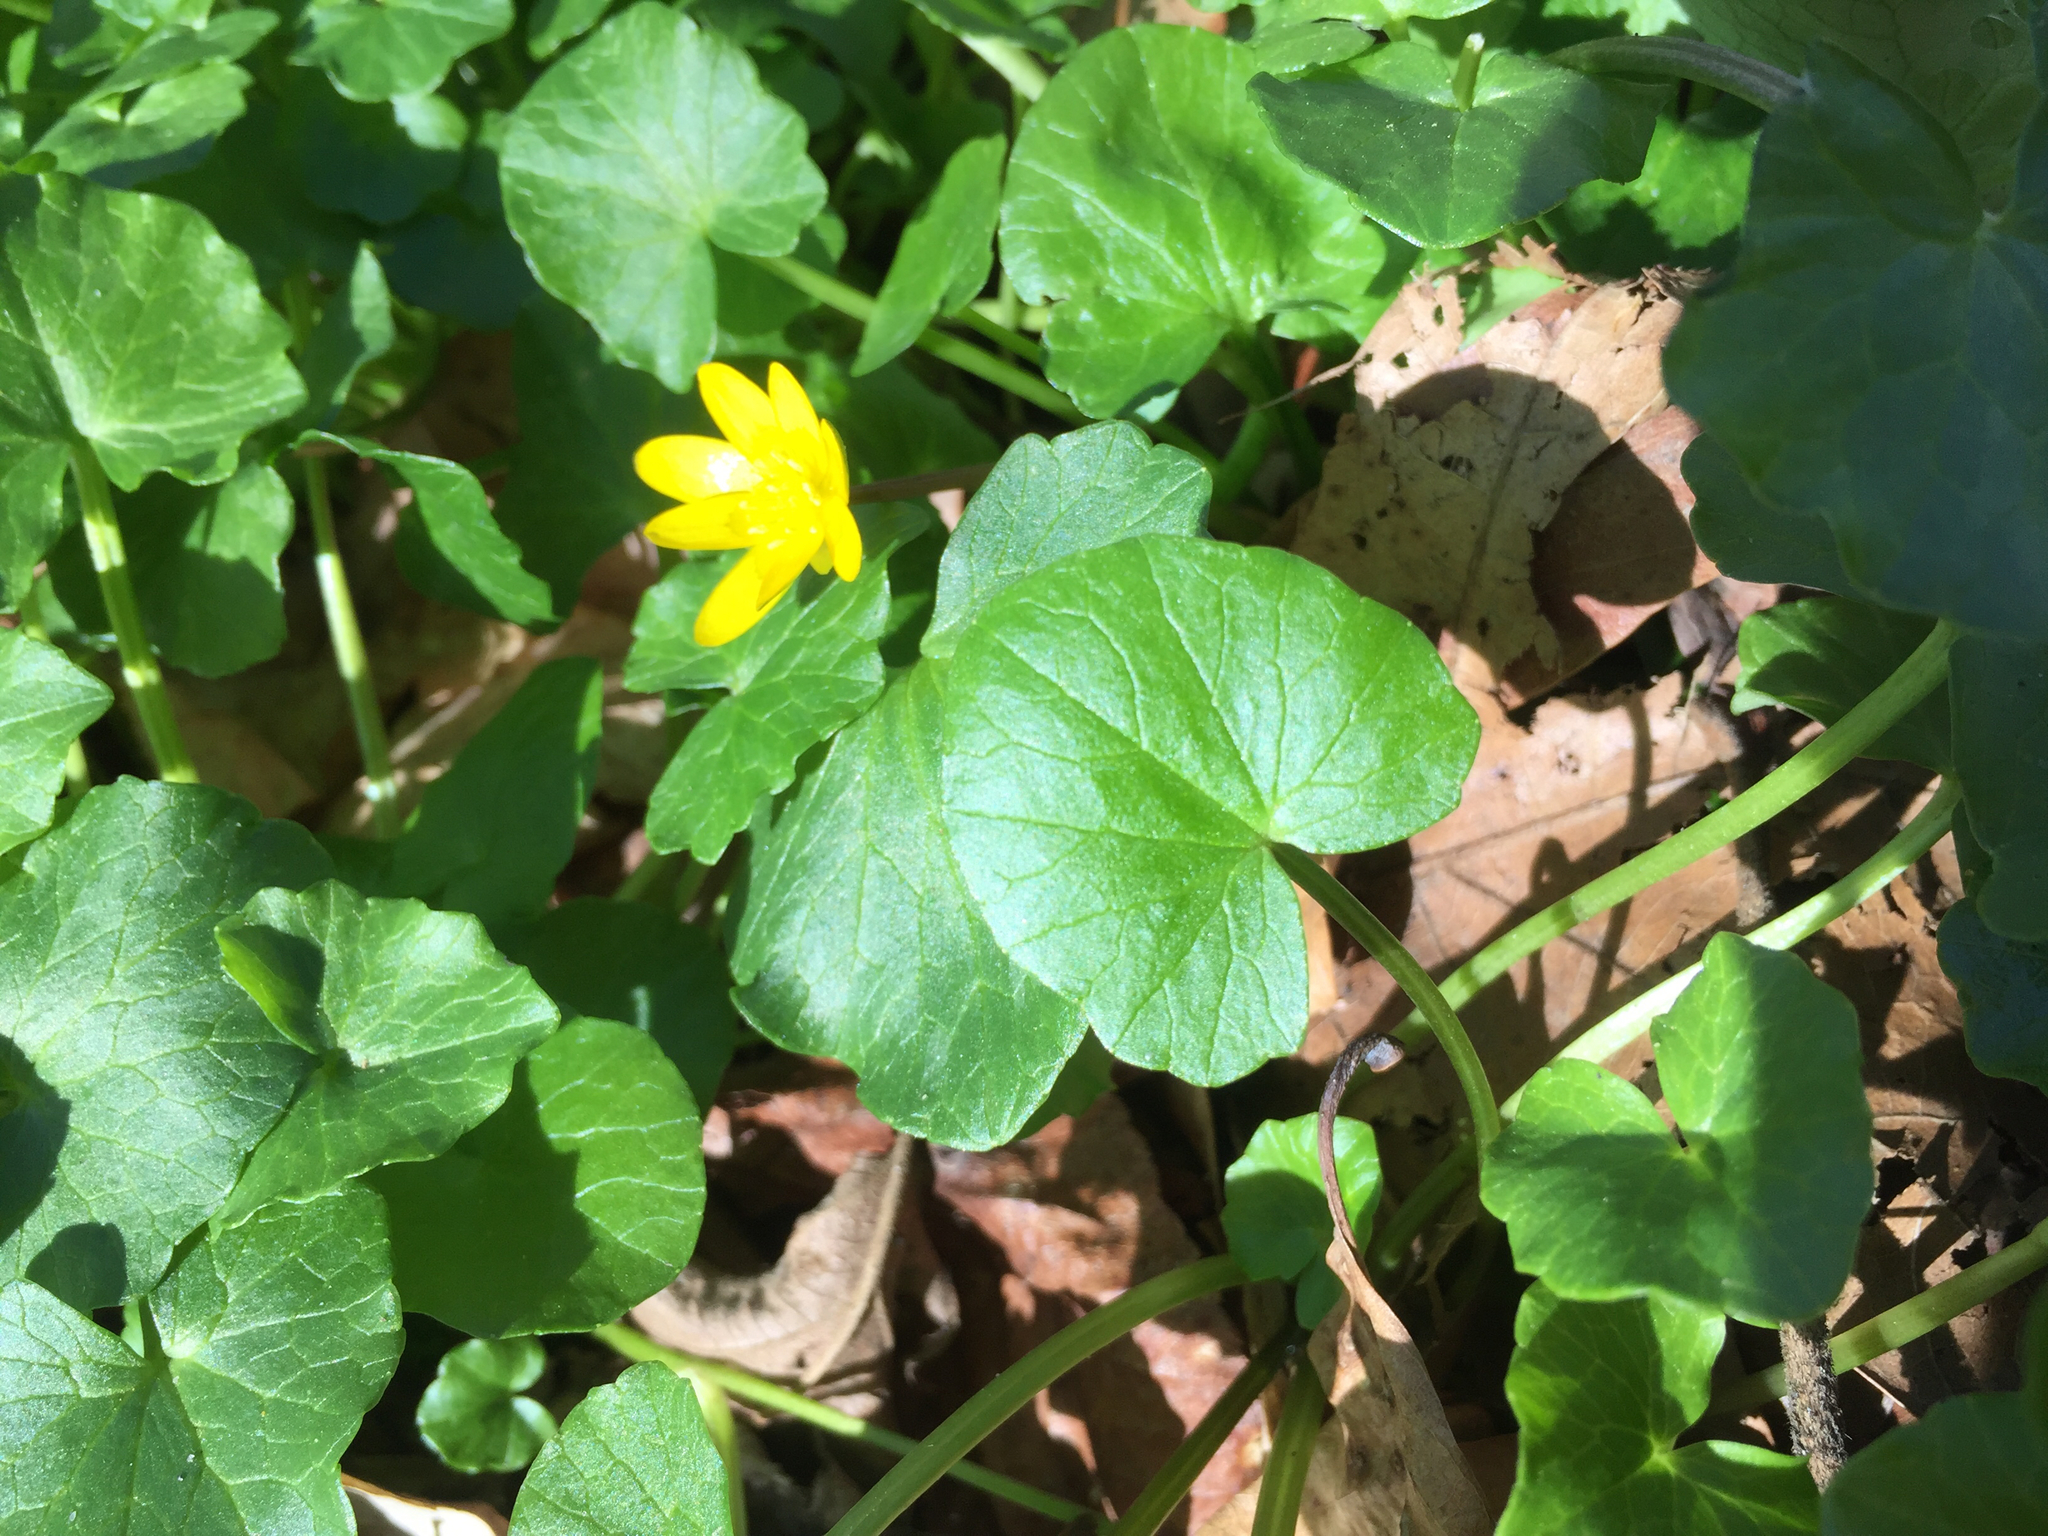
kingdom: Plantae
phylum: Tracheophyta
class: Magnoliopsida
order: Ranunculales
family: Ranunculaceae
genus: Ficaria
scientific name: Ficaria verna
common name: Lesser celandine
